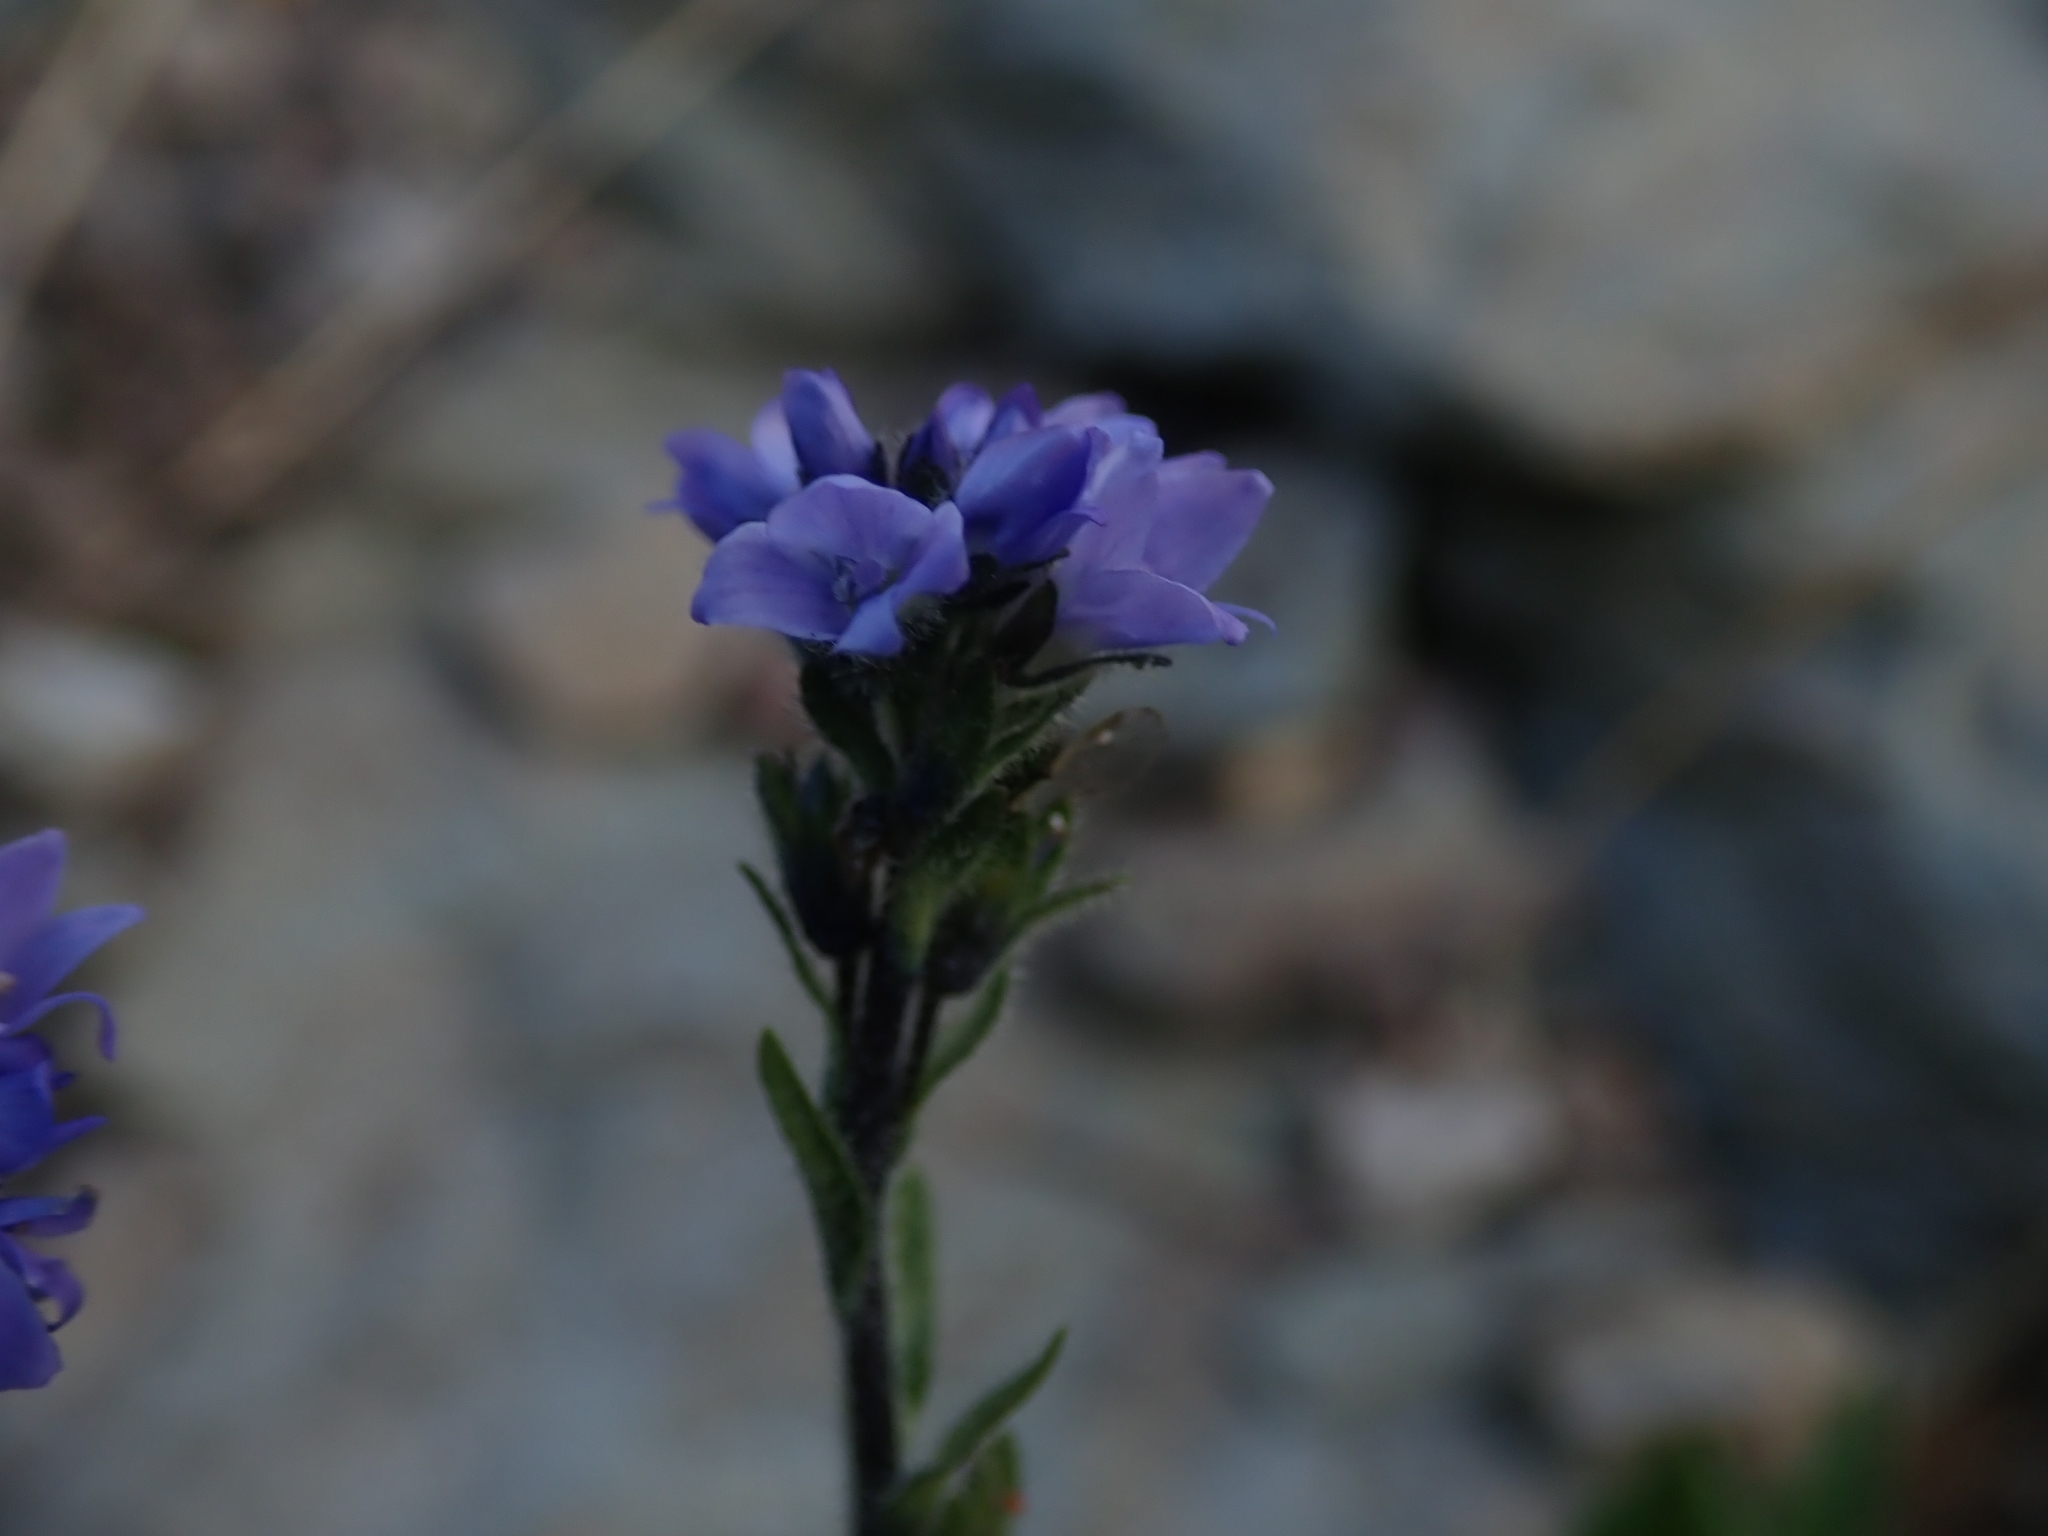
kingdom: Plantae
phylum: Tracheophyta
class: Magnoliopsida
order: Lamiales
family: Plantaginaceae
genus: Veronica
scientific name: Veronica wormskjoldii
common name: American alpine speedwell
